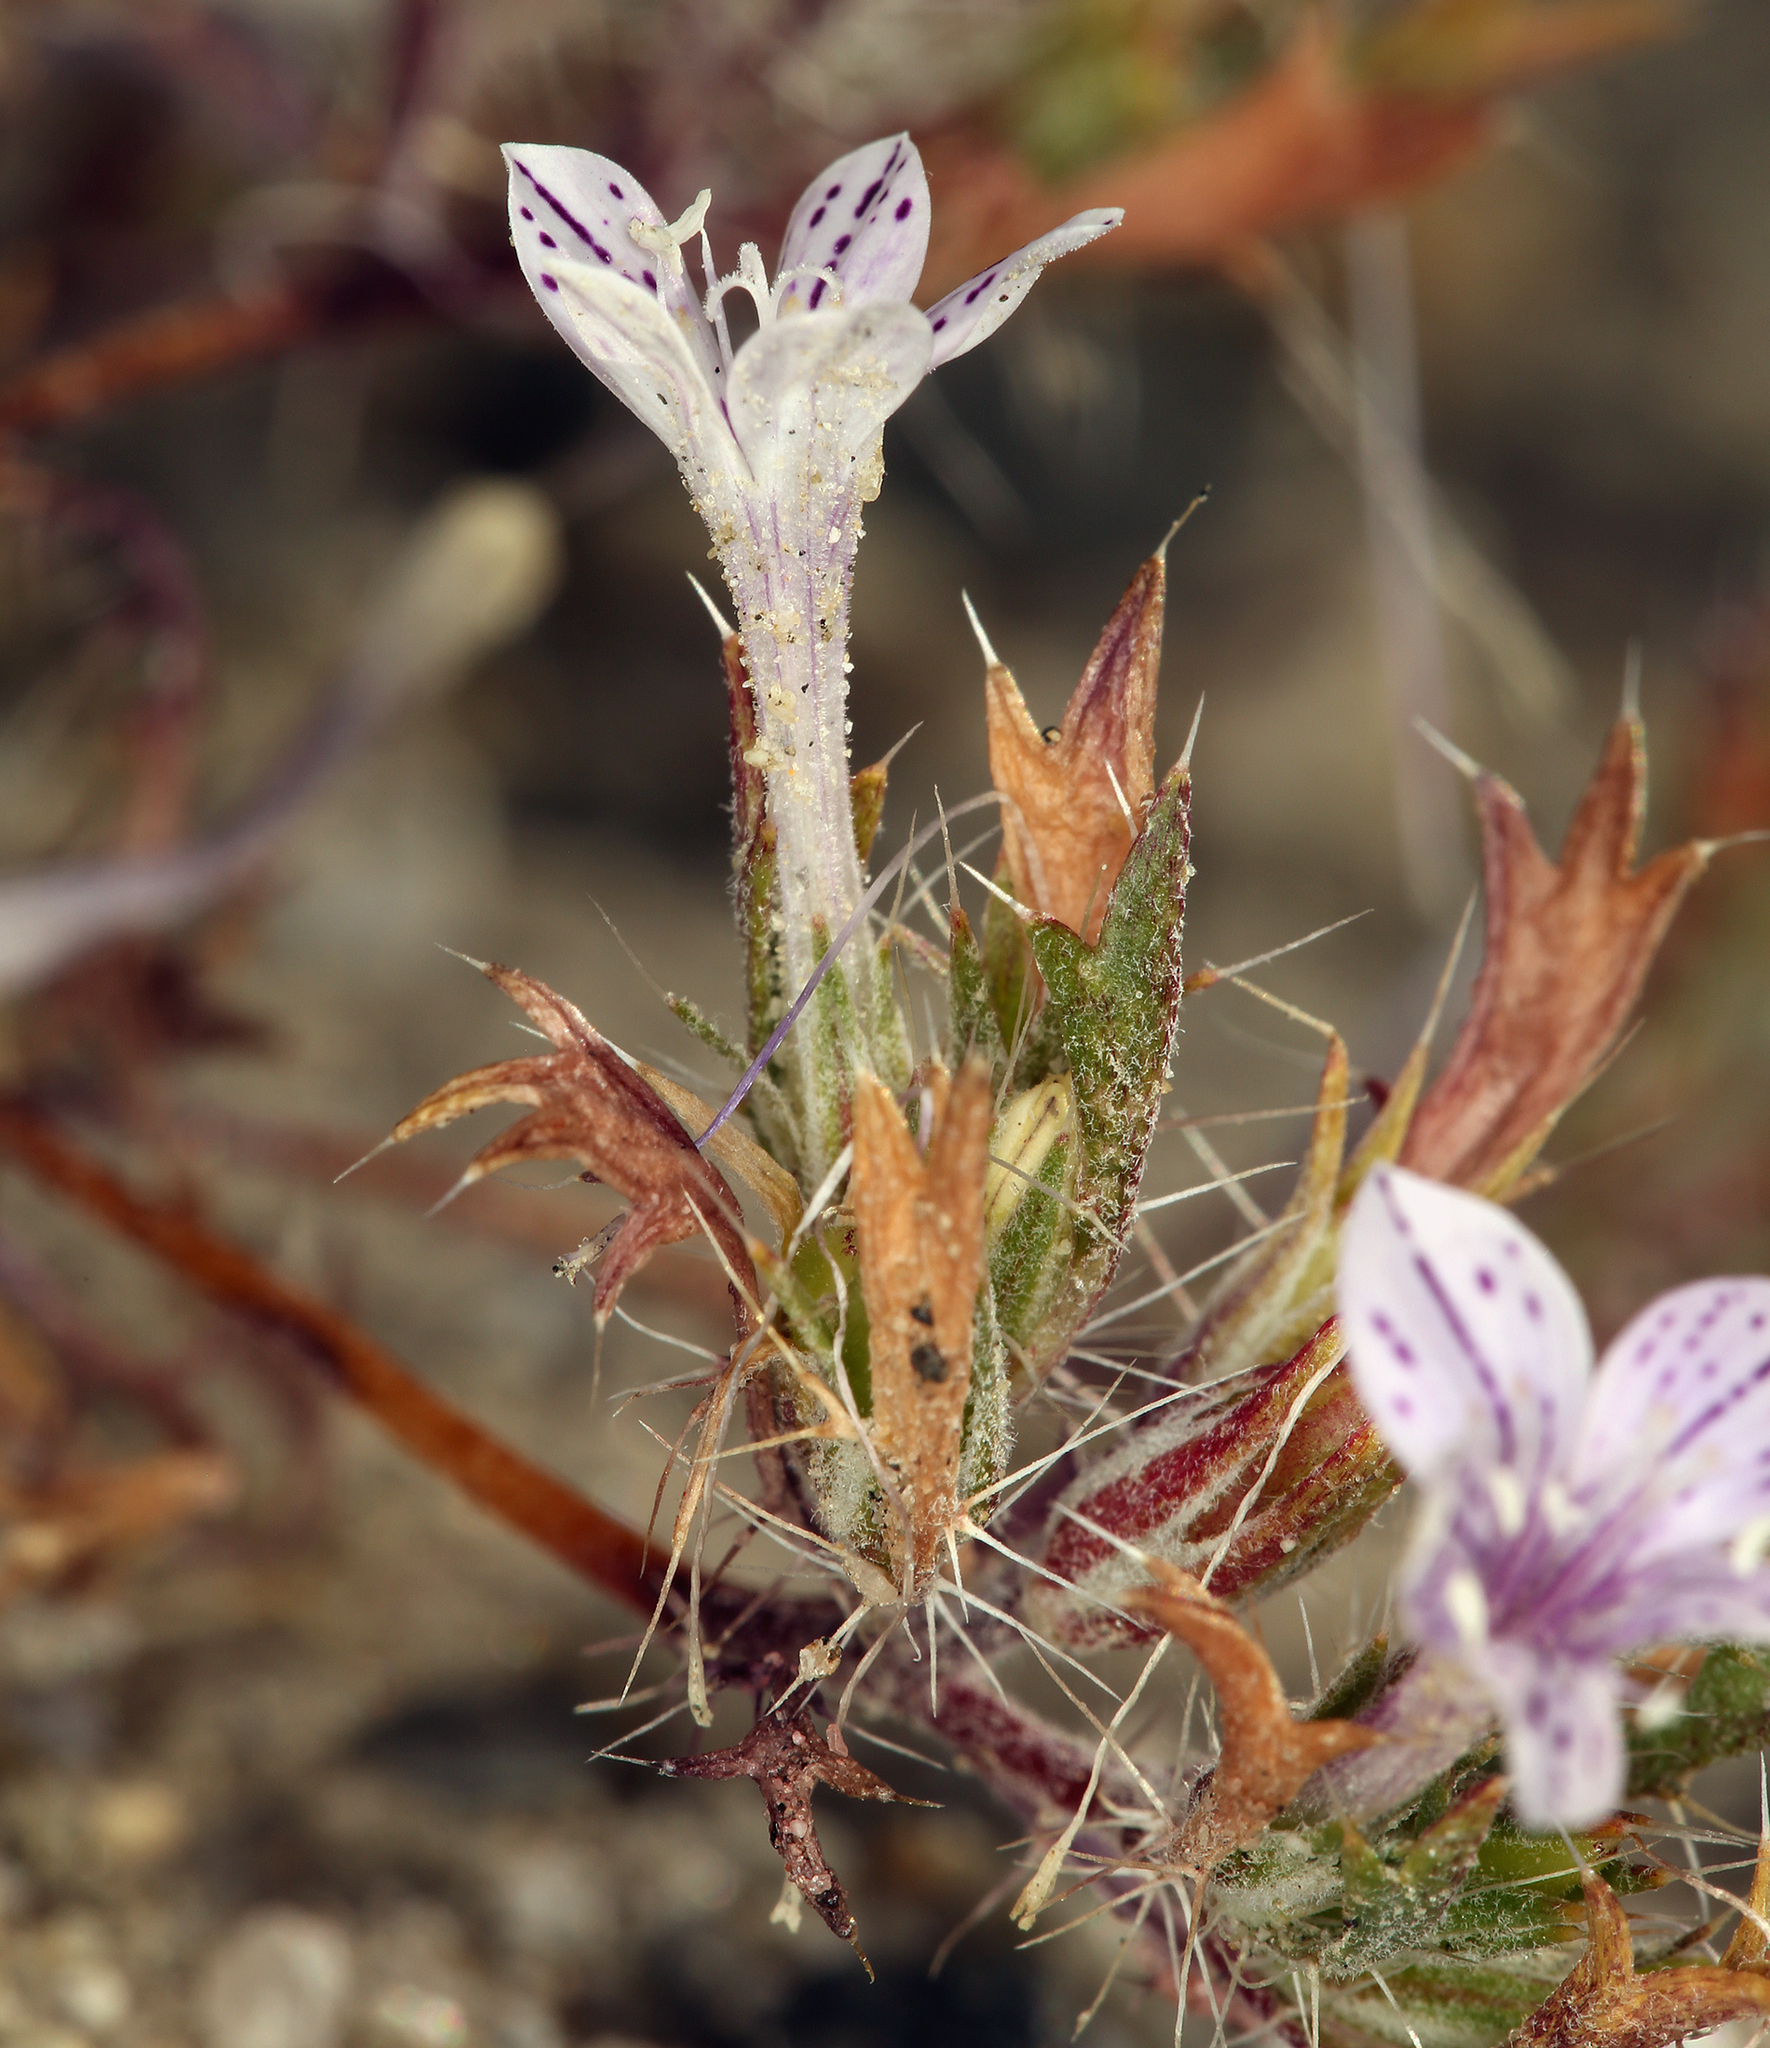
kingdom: Plantae
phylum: Tracheophyta
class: Magnoliopsida
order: Ericales
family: Polemoniaceae
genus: Langloisia
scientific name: Langloisia setosissima
